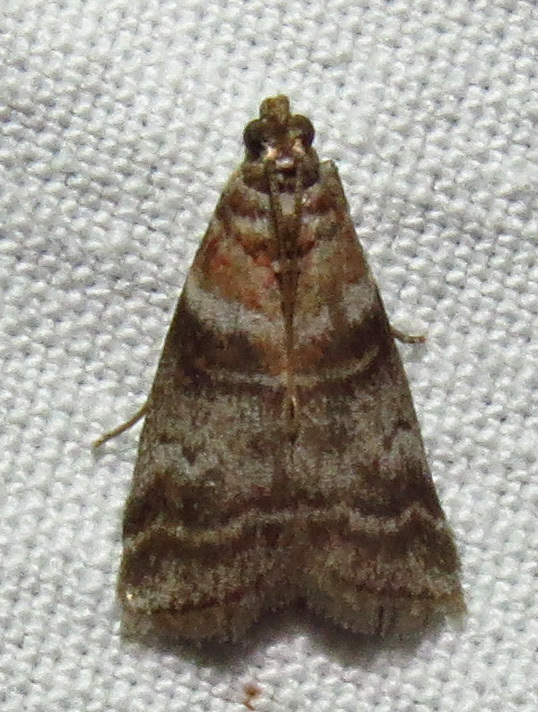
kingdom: Animalia
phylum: Arthropoda
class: Insecta
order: Lepidoptera
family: Pyralidae
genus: Sciota
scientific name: Sciota uvinella
